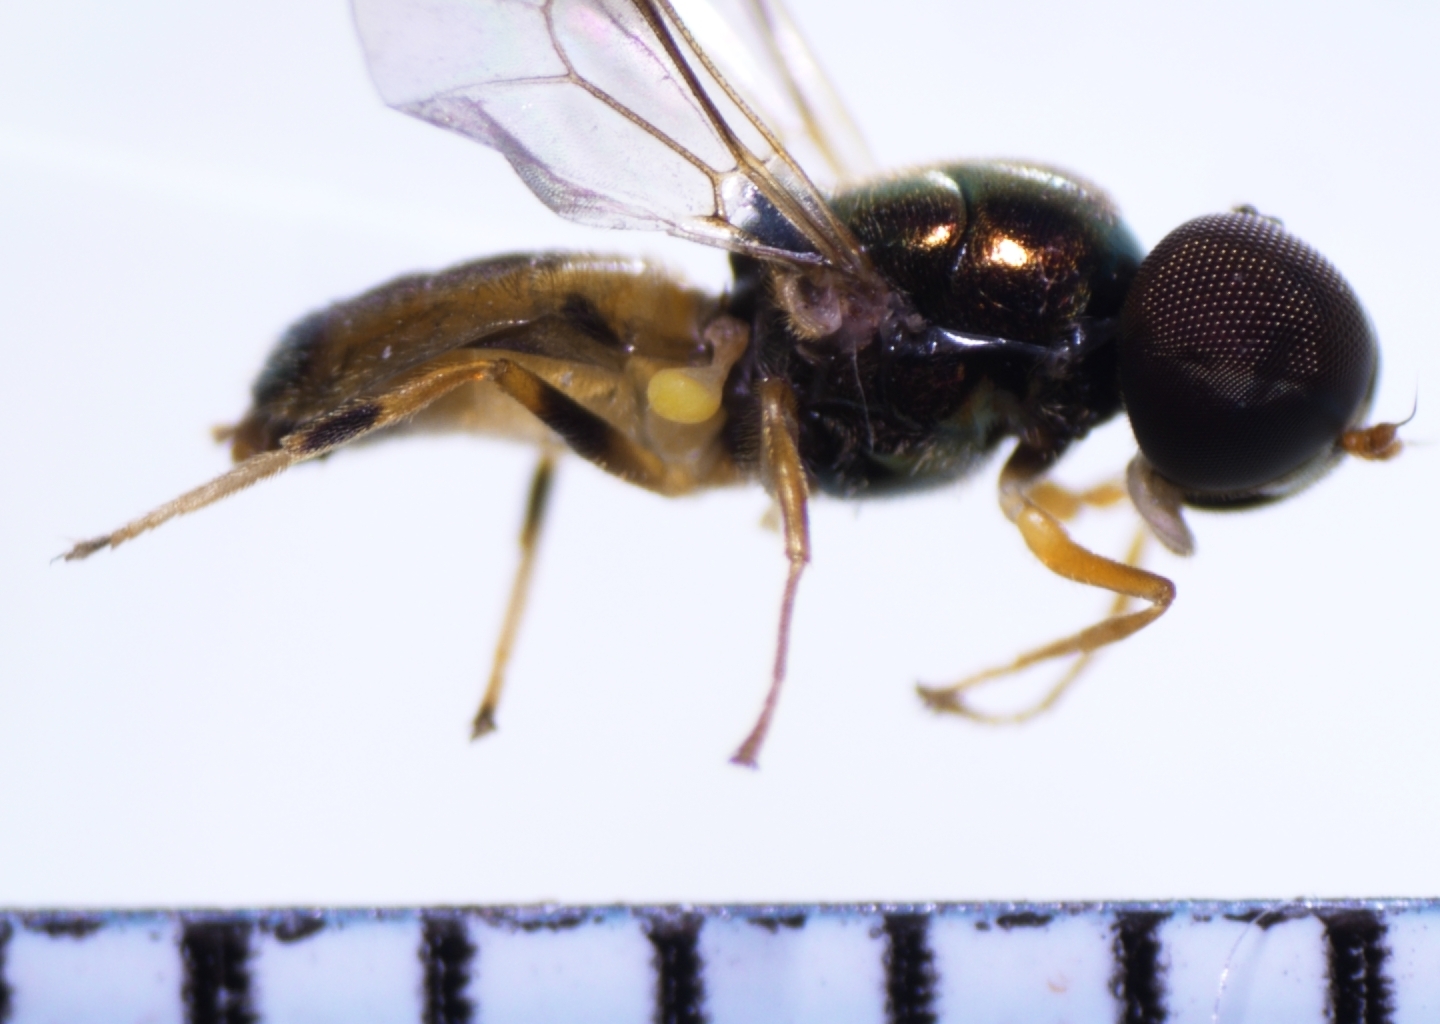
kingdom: Animalia
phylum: Arthropoda
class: Insecta
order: Diptera
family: Stratiomyidae
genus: Microchrysa
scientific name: Microchrysa flaviventris
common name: Soldier fly
